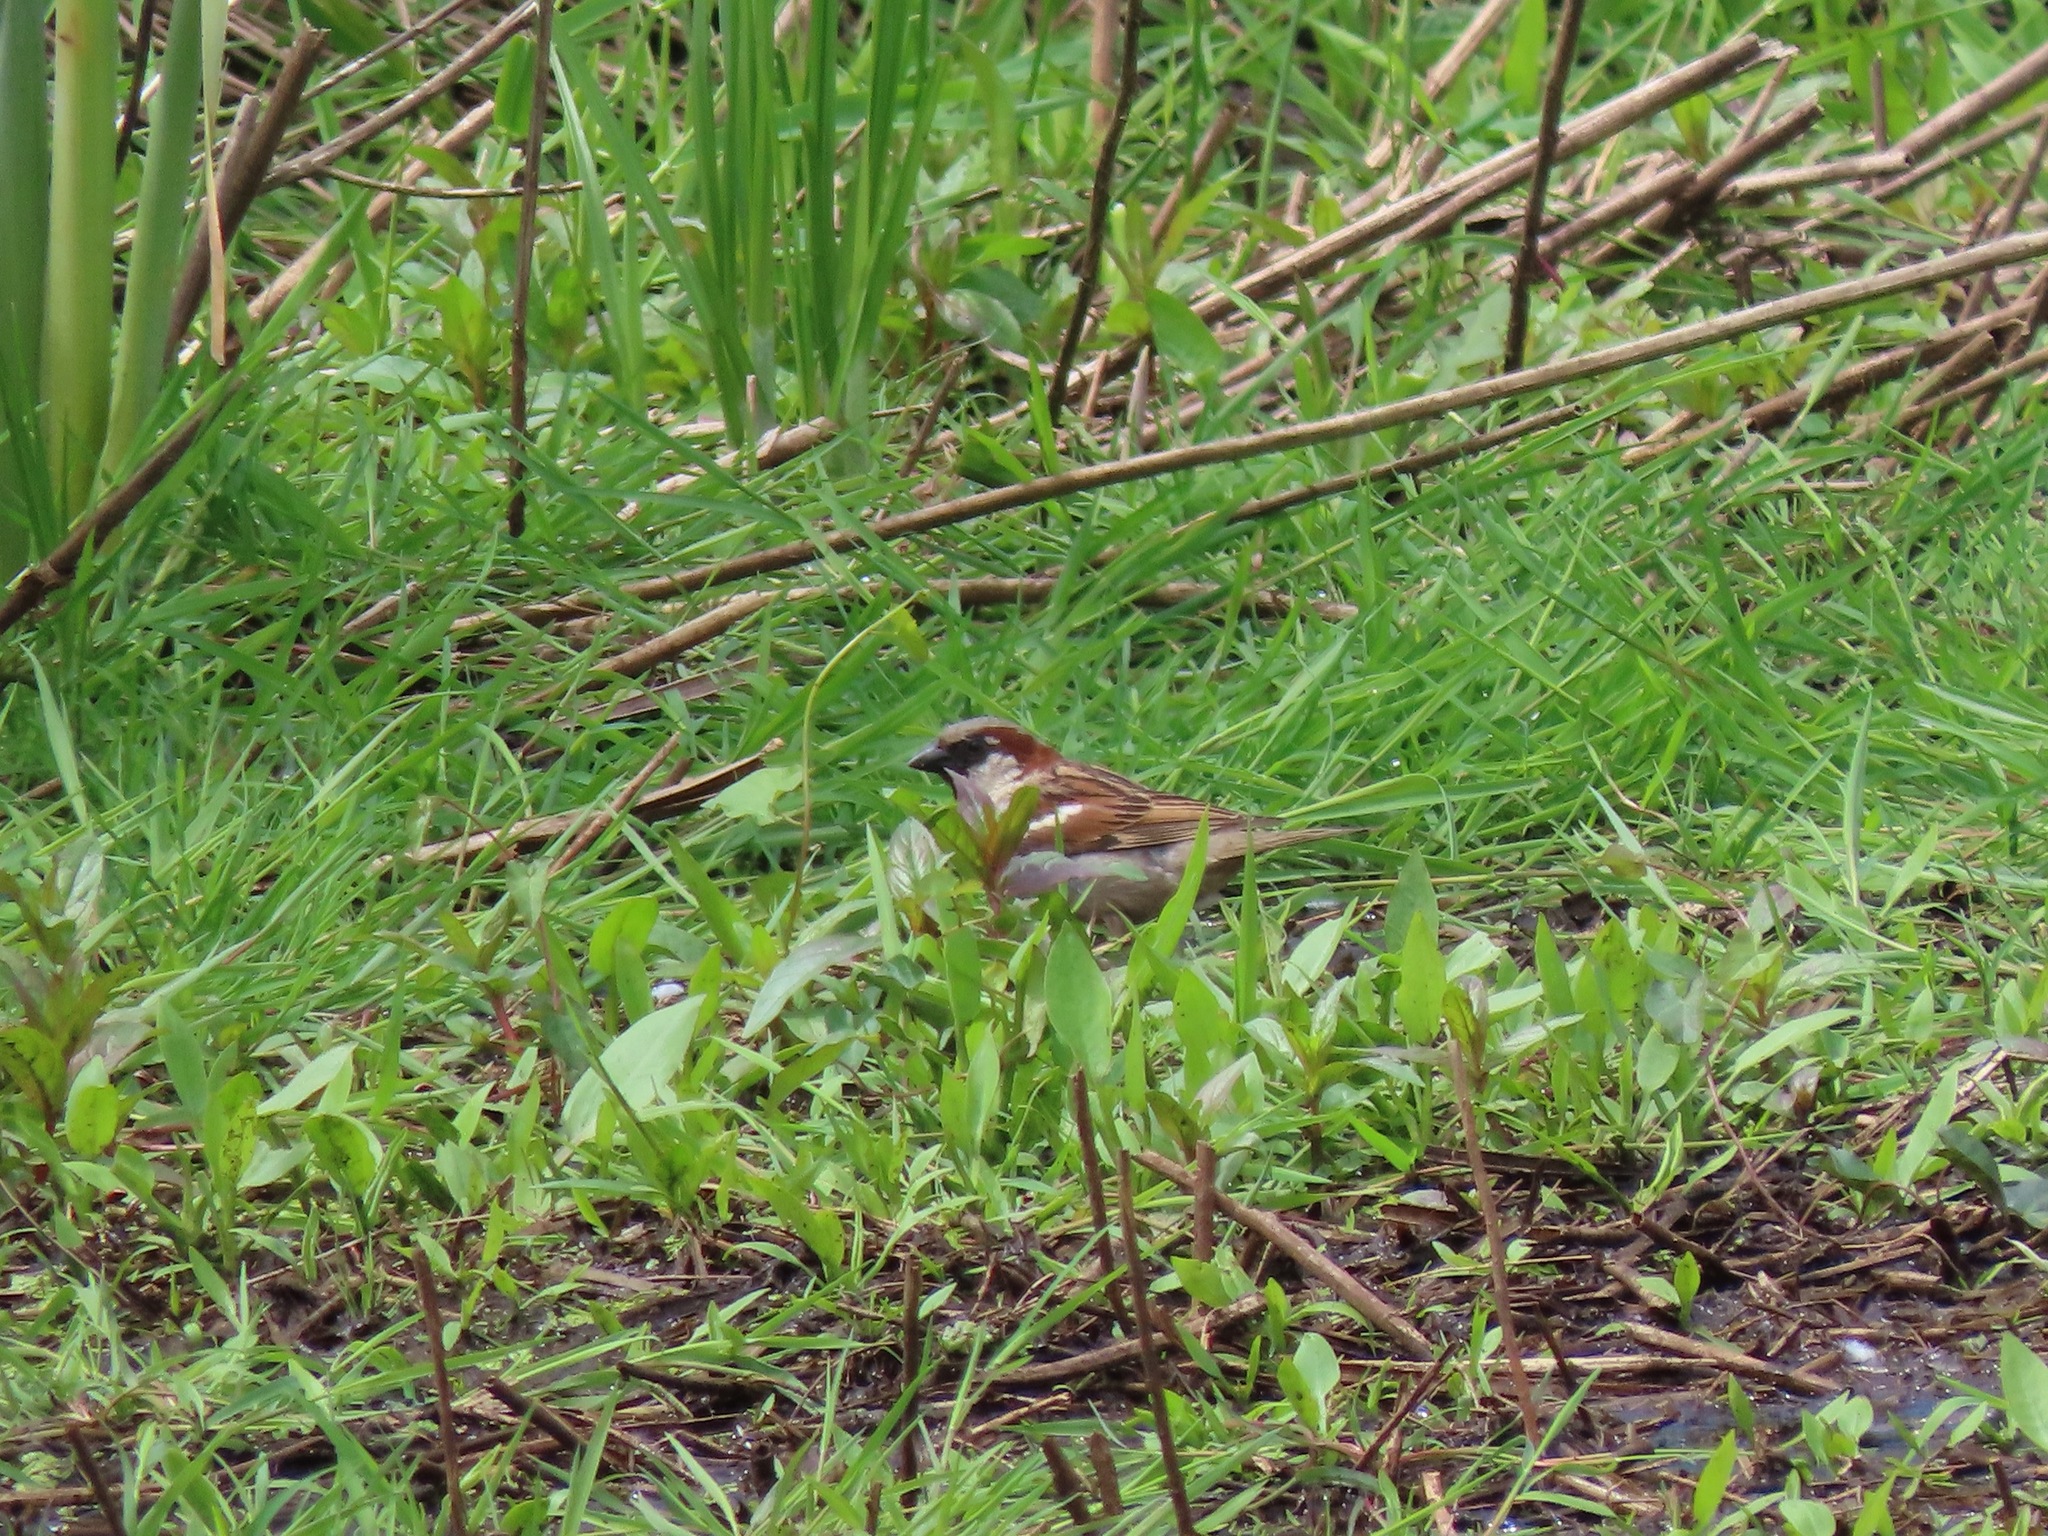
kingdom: Animalia
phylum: Chordata
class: Aves
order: Passeriformes
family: Passeridae
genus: Passer
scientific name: Passer domesticus
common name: House sparrow
